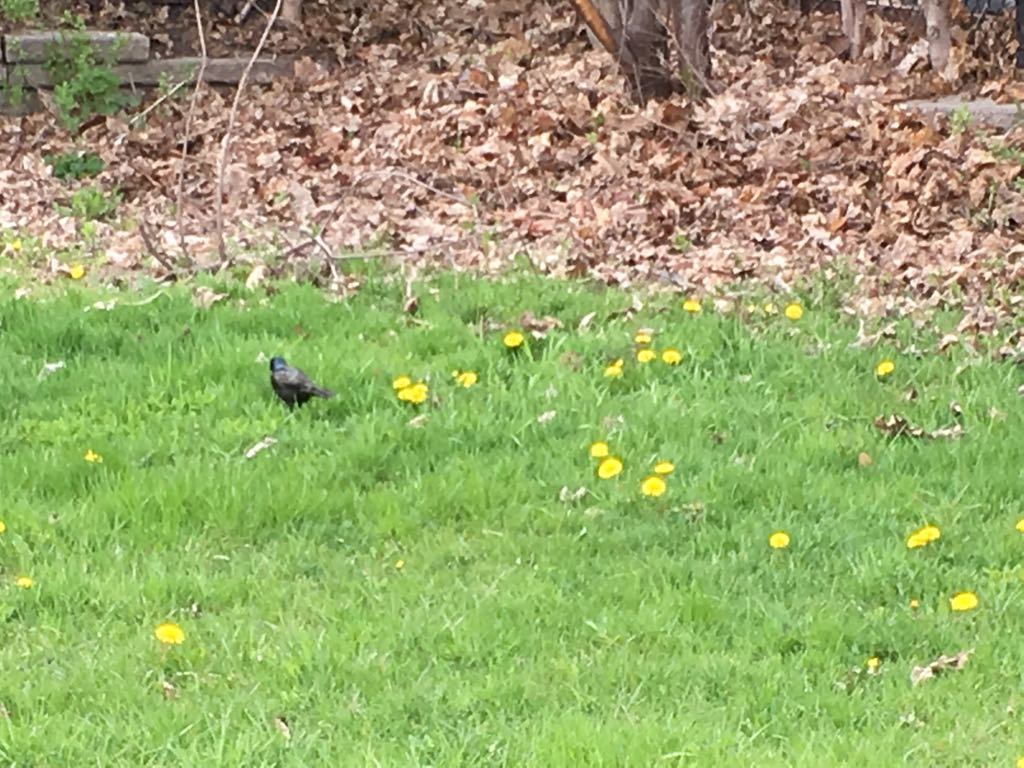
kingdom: Animalia
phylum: Chordata
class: Aves
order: Passeriformes
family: Icteridae
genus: Quiscalus
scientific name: Quiscalus quiscula
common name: Common grackle
